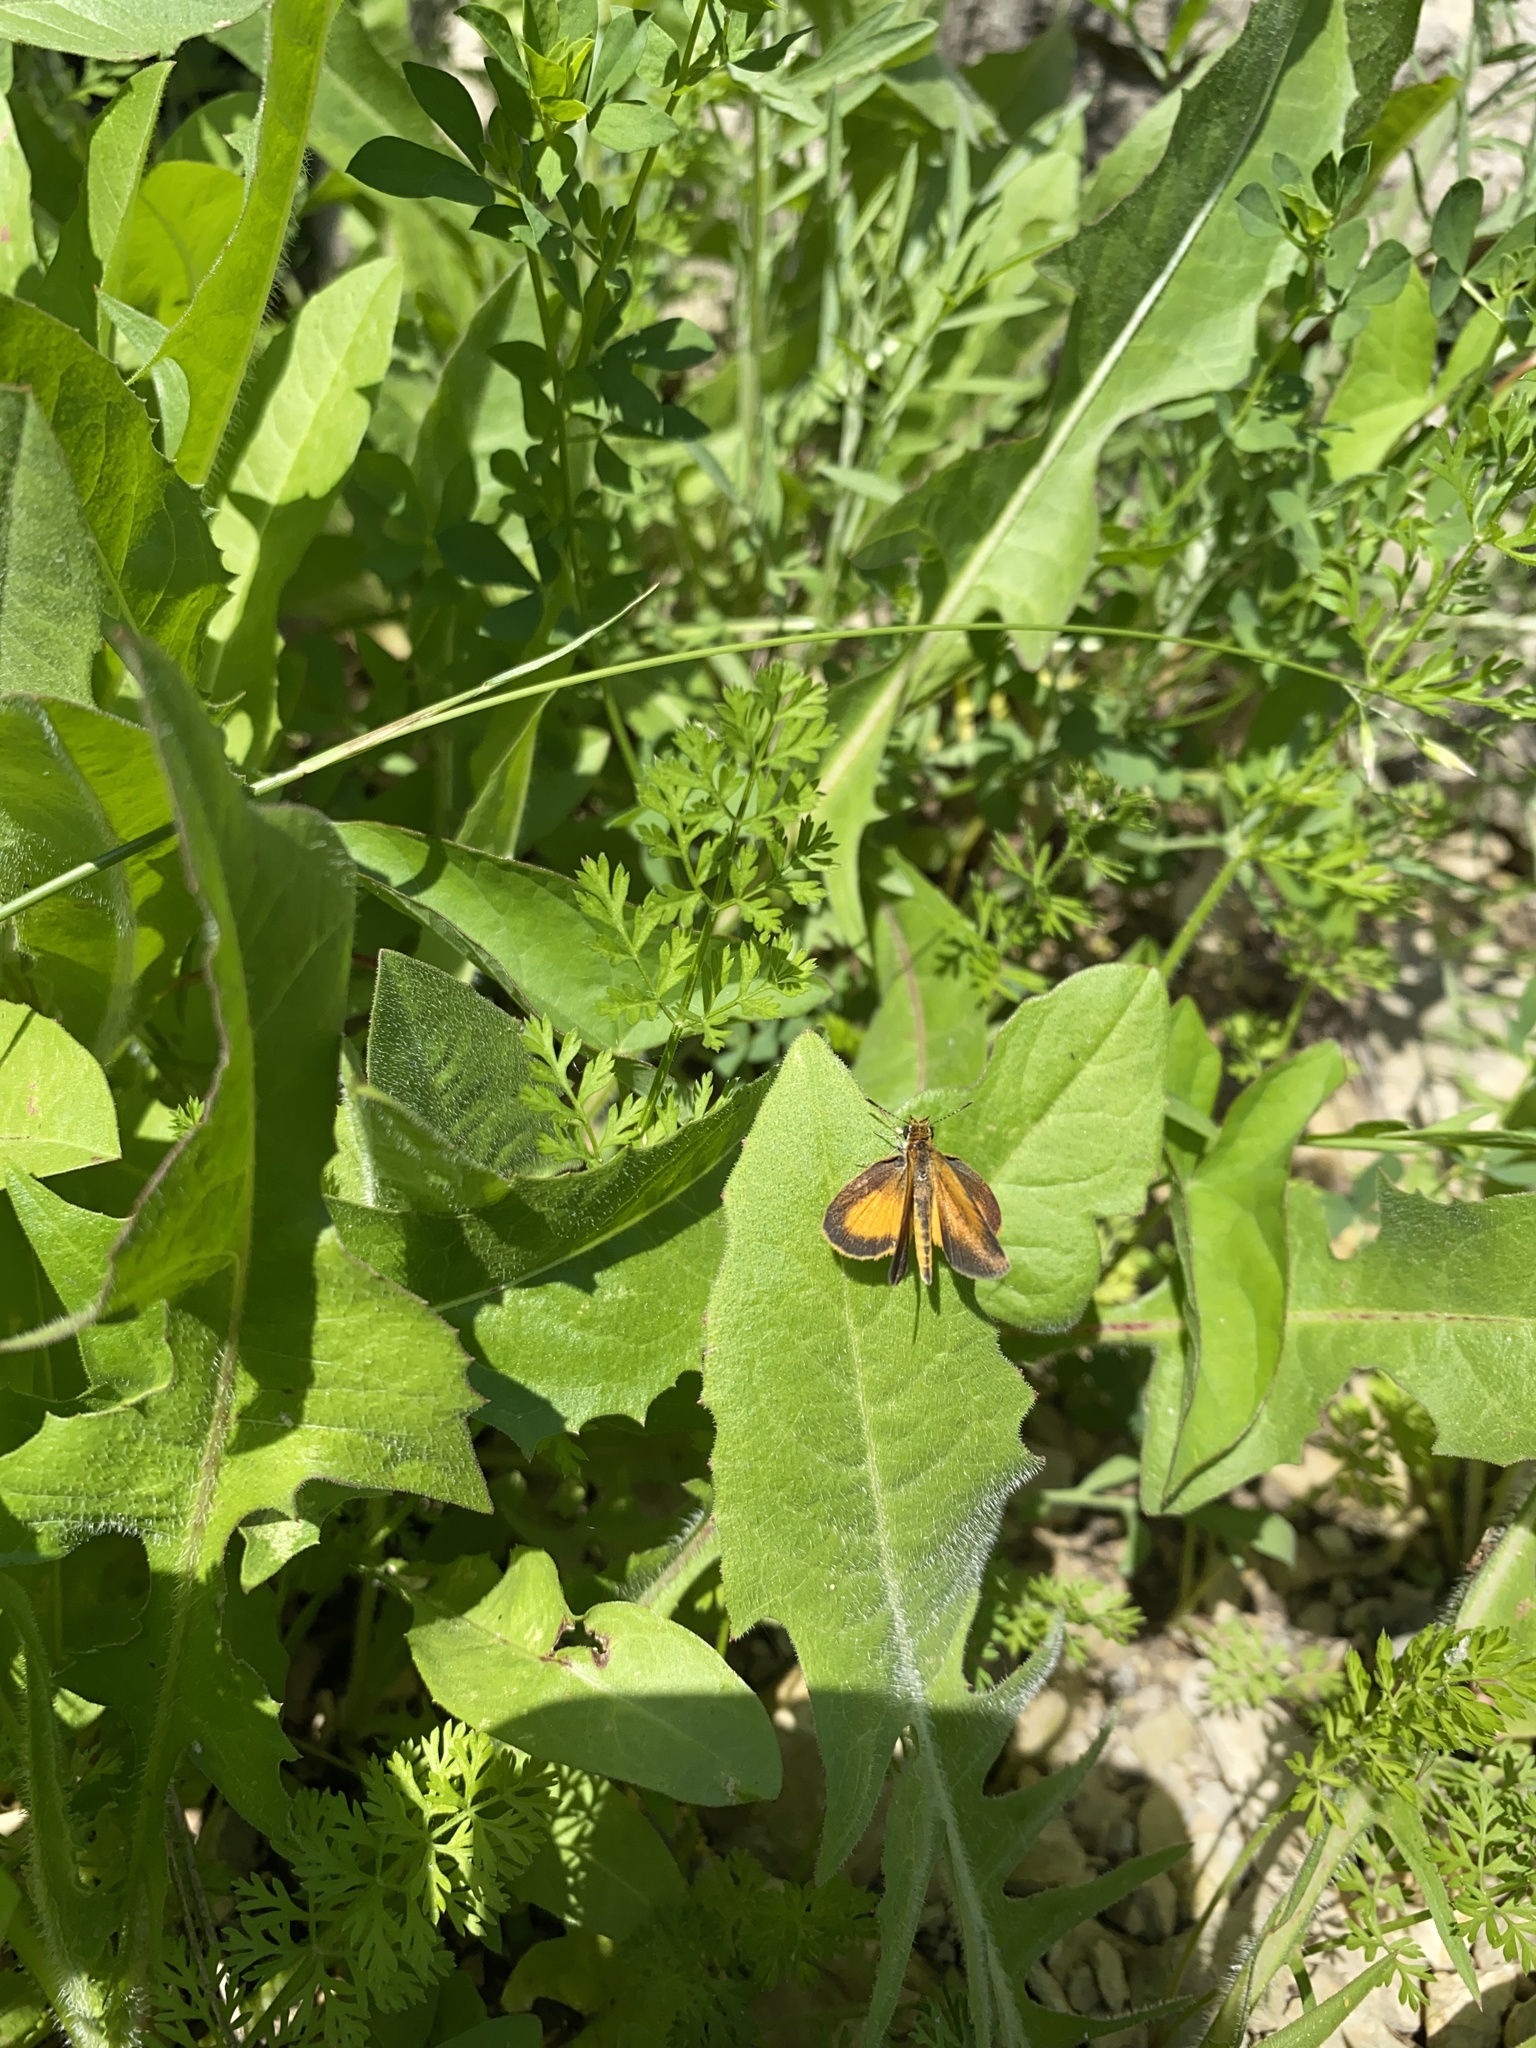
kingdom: Animalia
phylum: Arthropoda
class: Insecta
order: Lepidoptera
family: Hesperiidae
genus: Ancyloxypha
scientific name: Ancyloxypha numitor
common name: Least skipper
